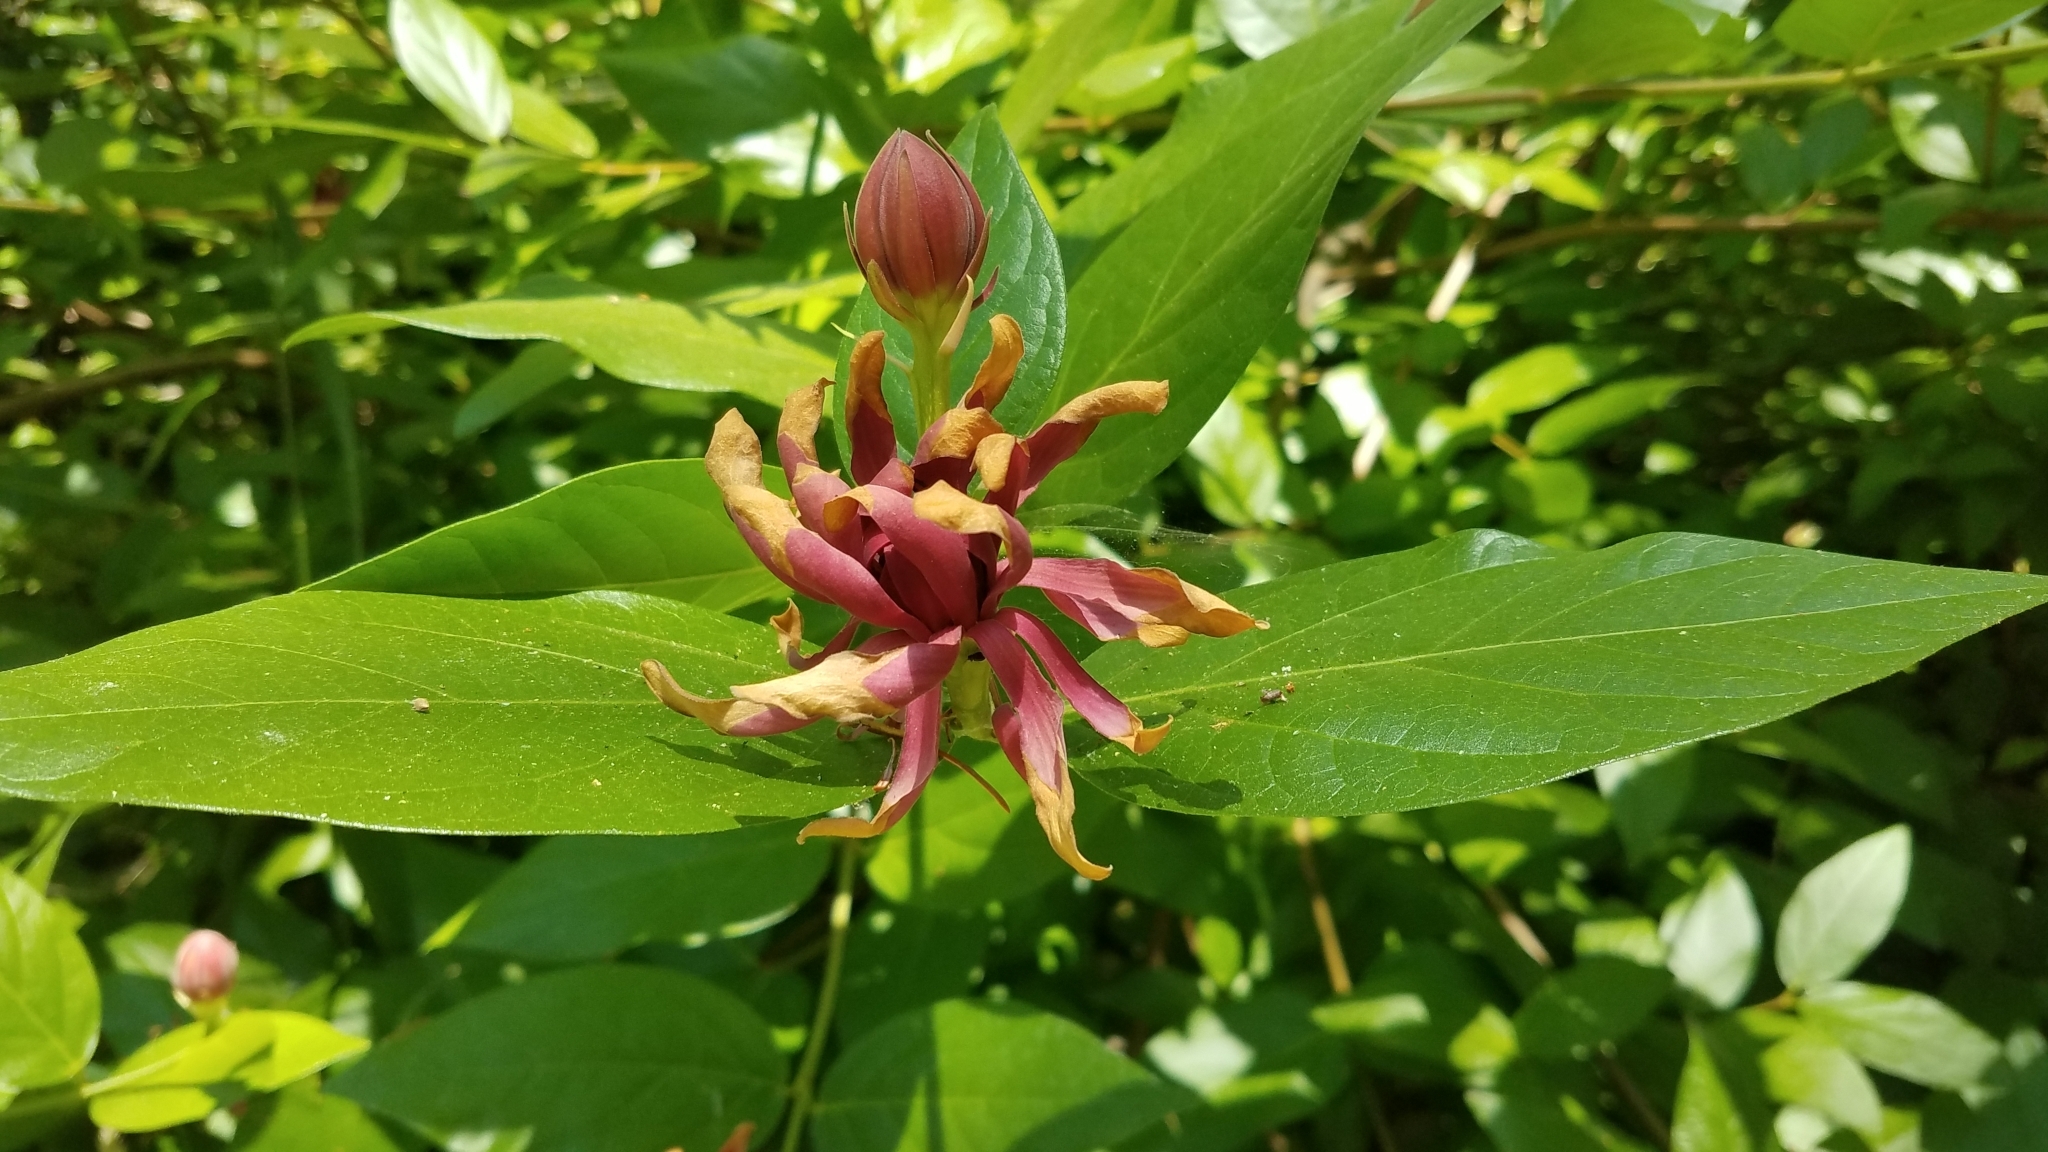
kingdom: Plantae
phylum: Tracheophyta
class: Magnoliopsida
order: Laurales
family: Calycanthaceae
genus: Calycanthus
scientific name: Calycanthus occidentalis
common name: California spicebush
